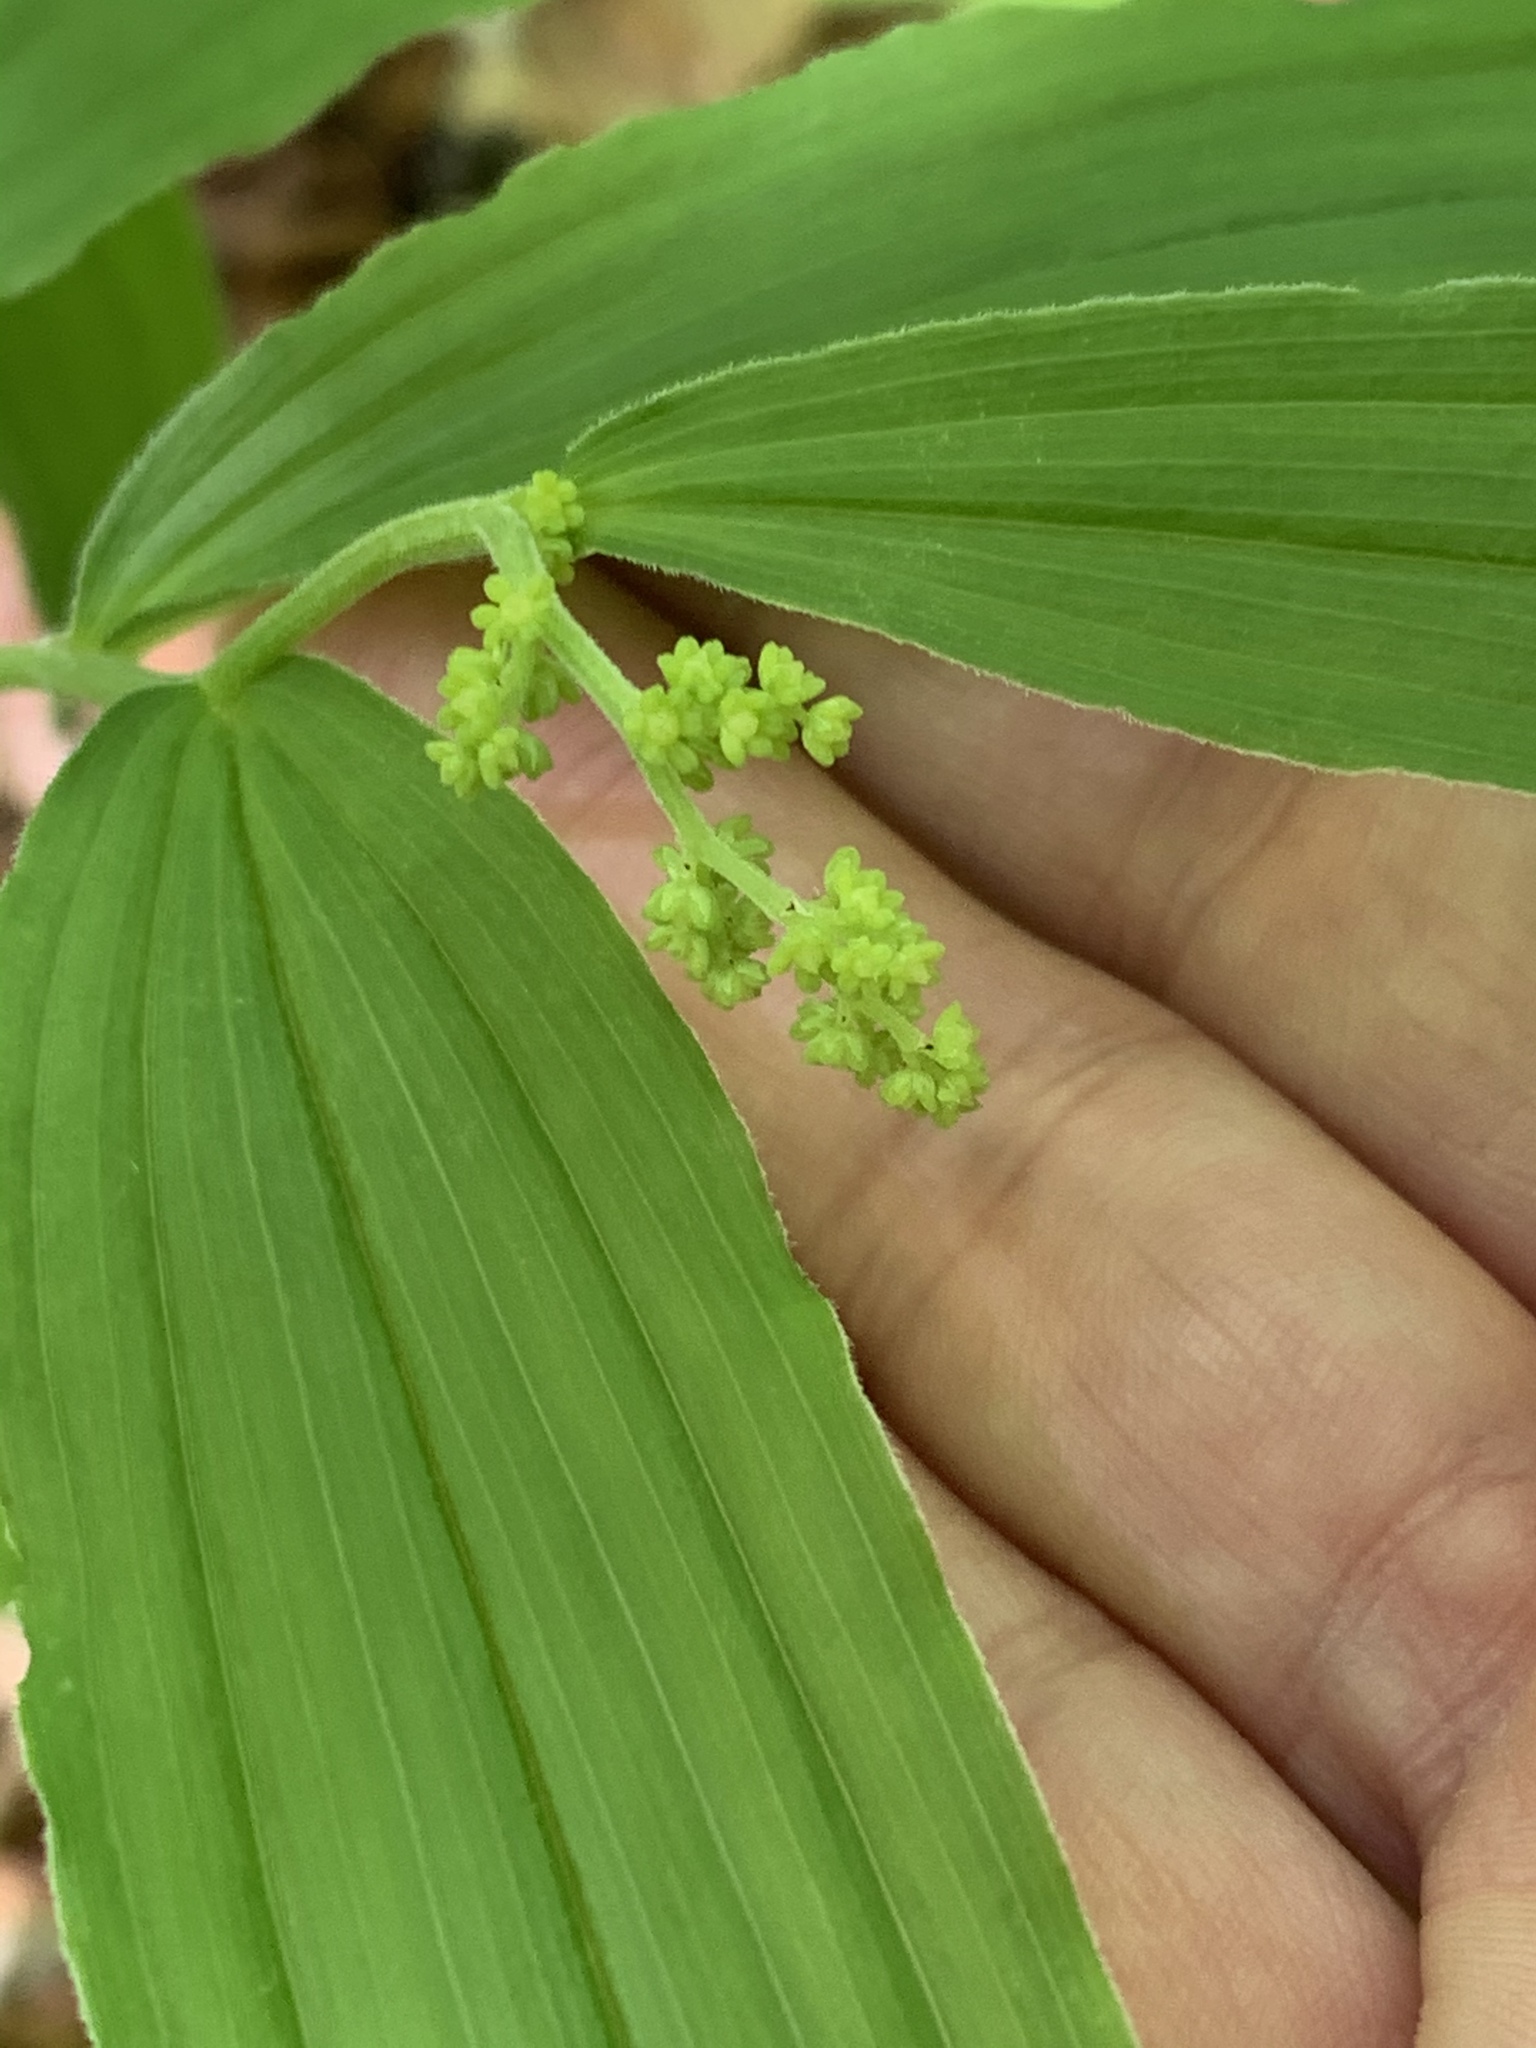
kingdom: Plantae
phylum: Tracheophyta
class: Liliopsida
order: Asparagales
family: Asparagaceae
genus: Maianthemum
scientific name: Maianthemum racemosum
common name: False spikenard
